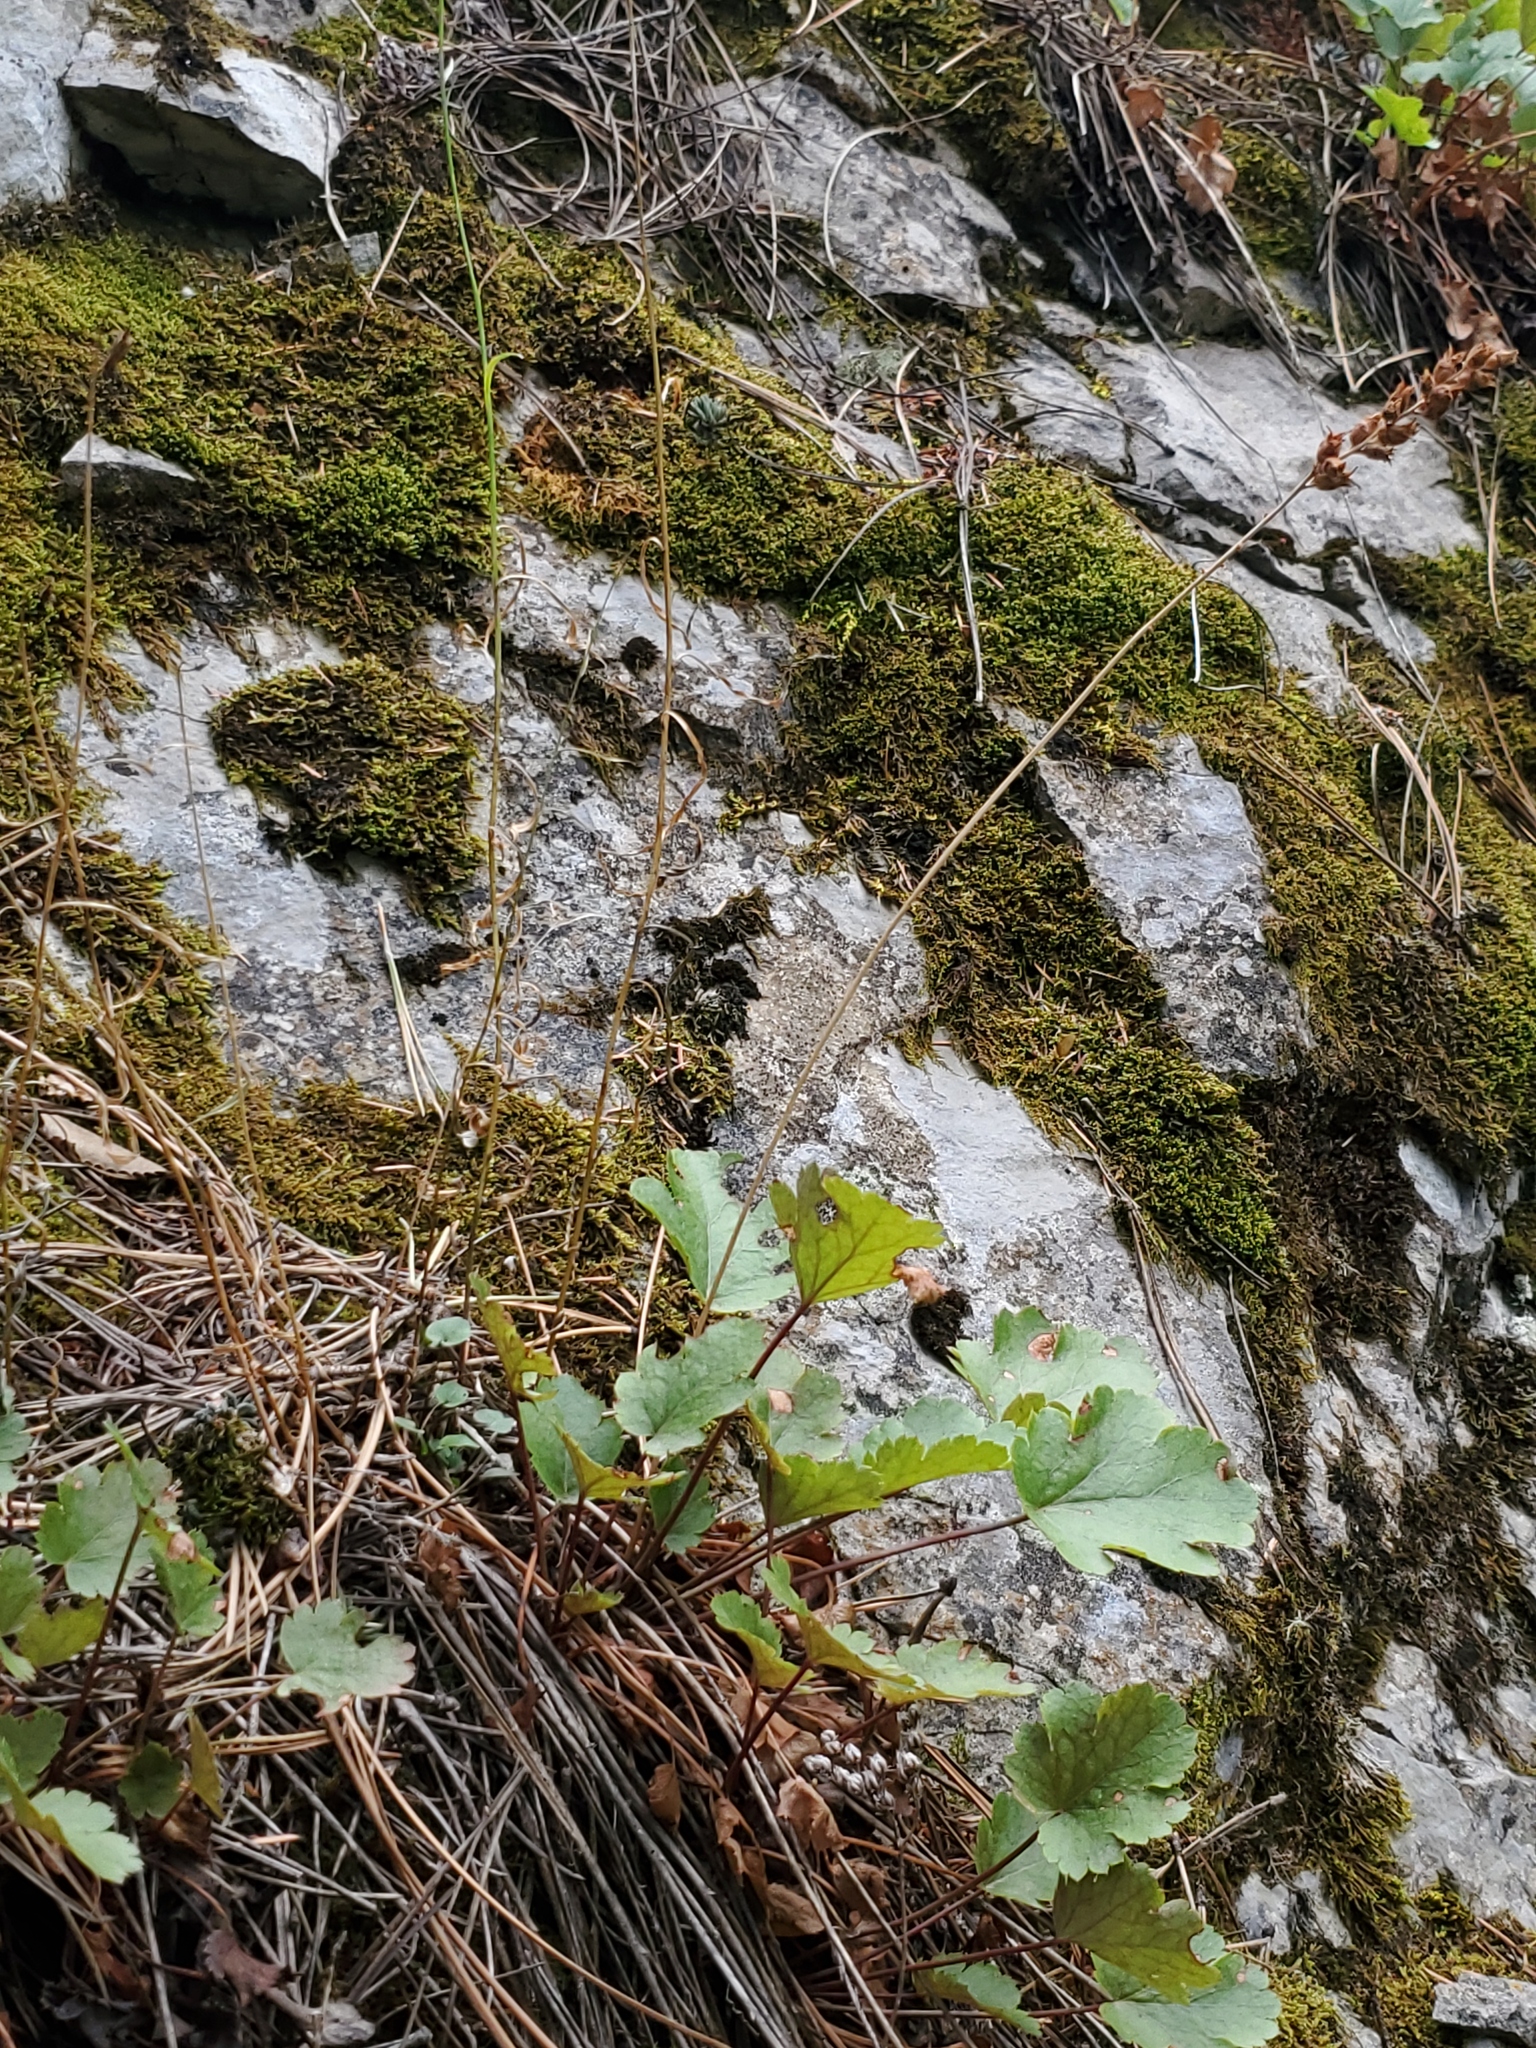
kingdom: Plantae
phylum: Tracheophyta
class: Magnoliopsida
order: Saxifragales
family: Saxifragaceae
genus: Heuchera
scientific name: Heuchera cylindrica
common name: Mat alumroot
